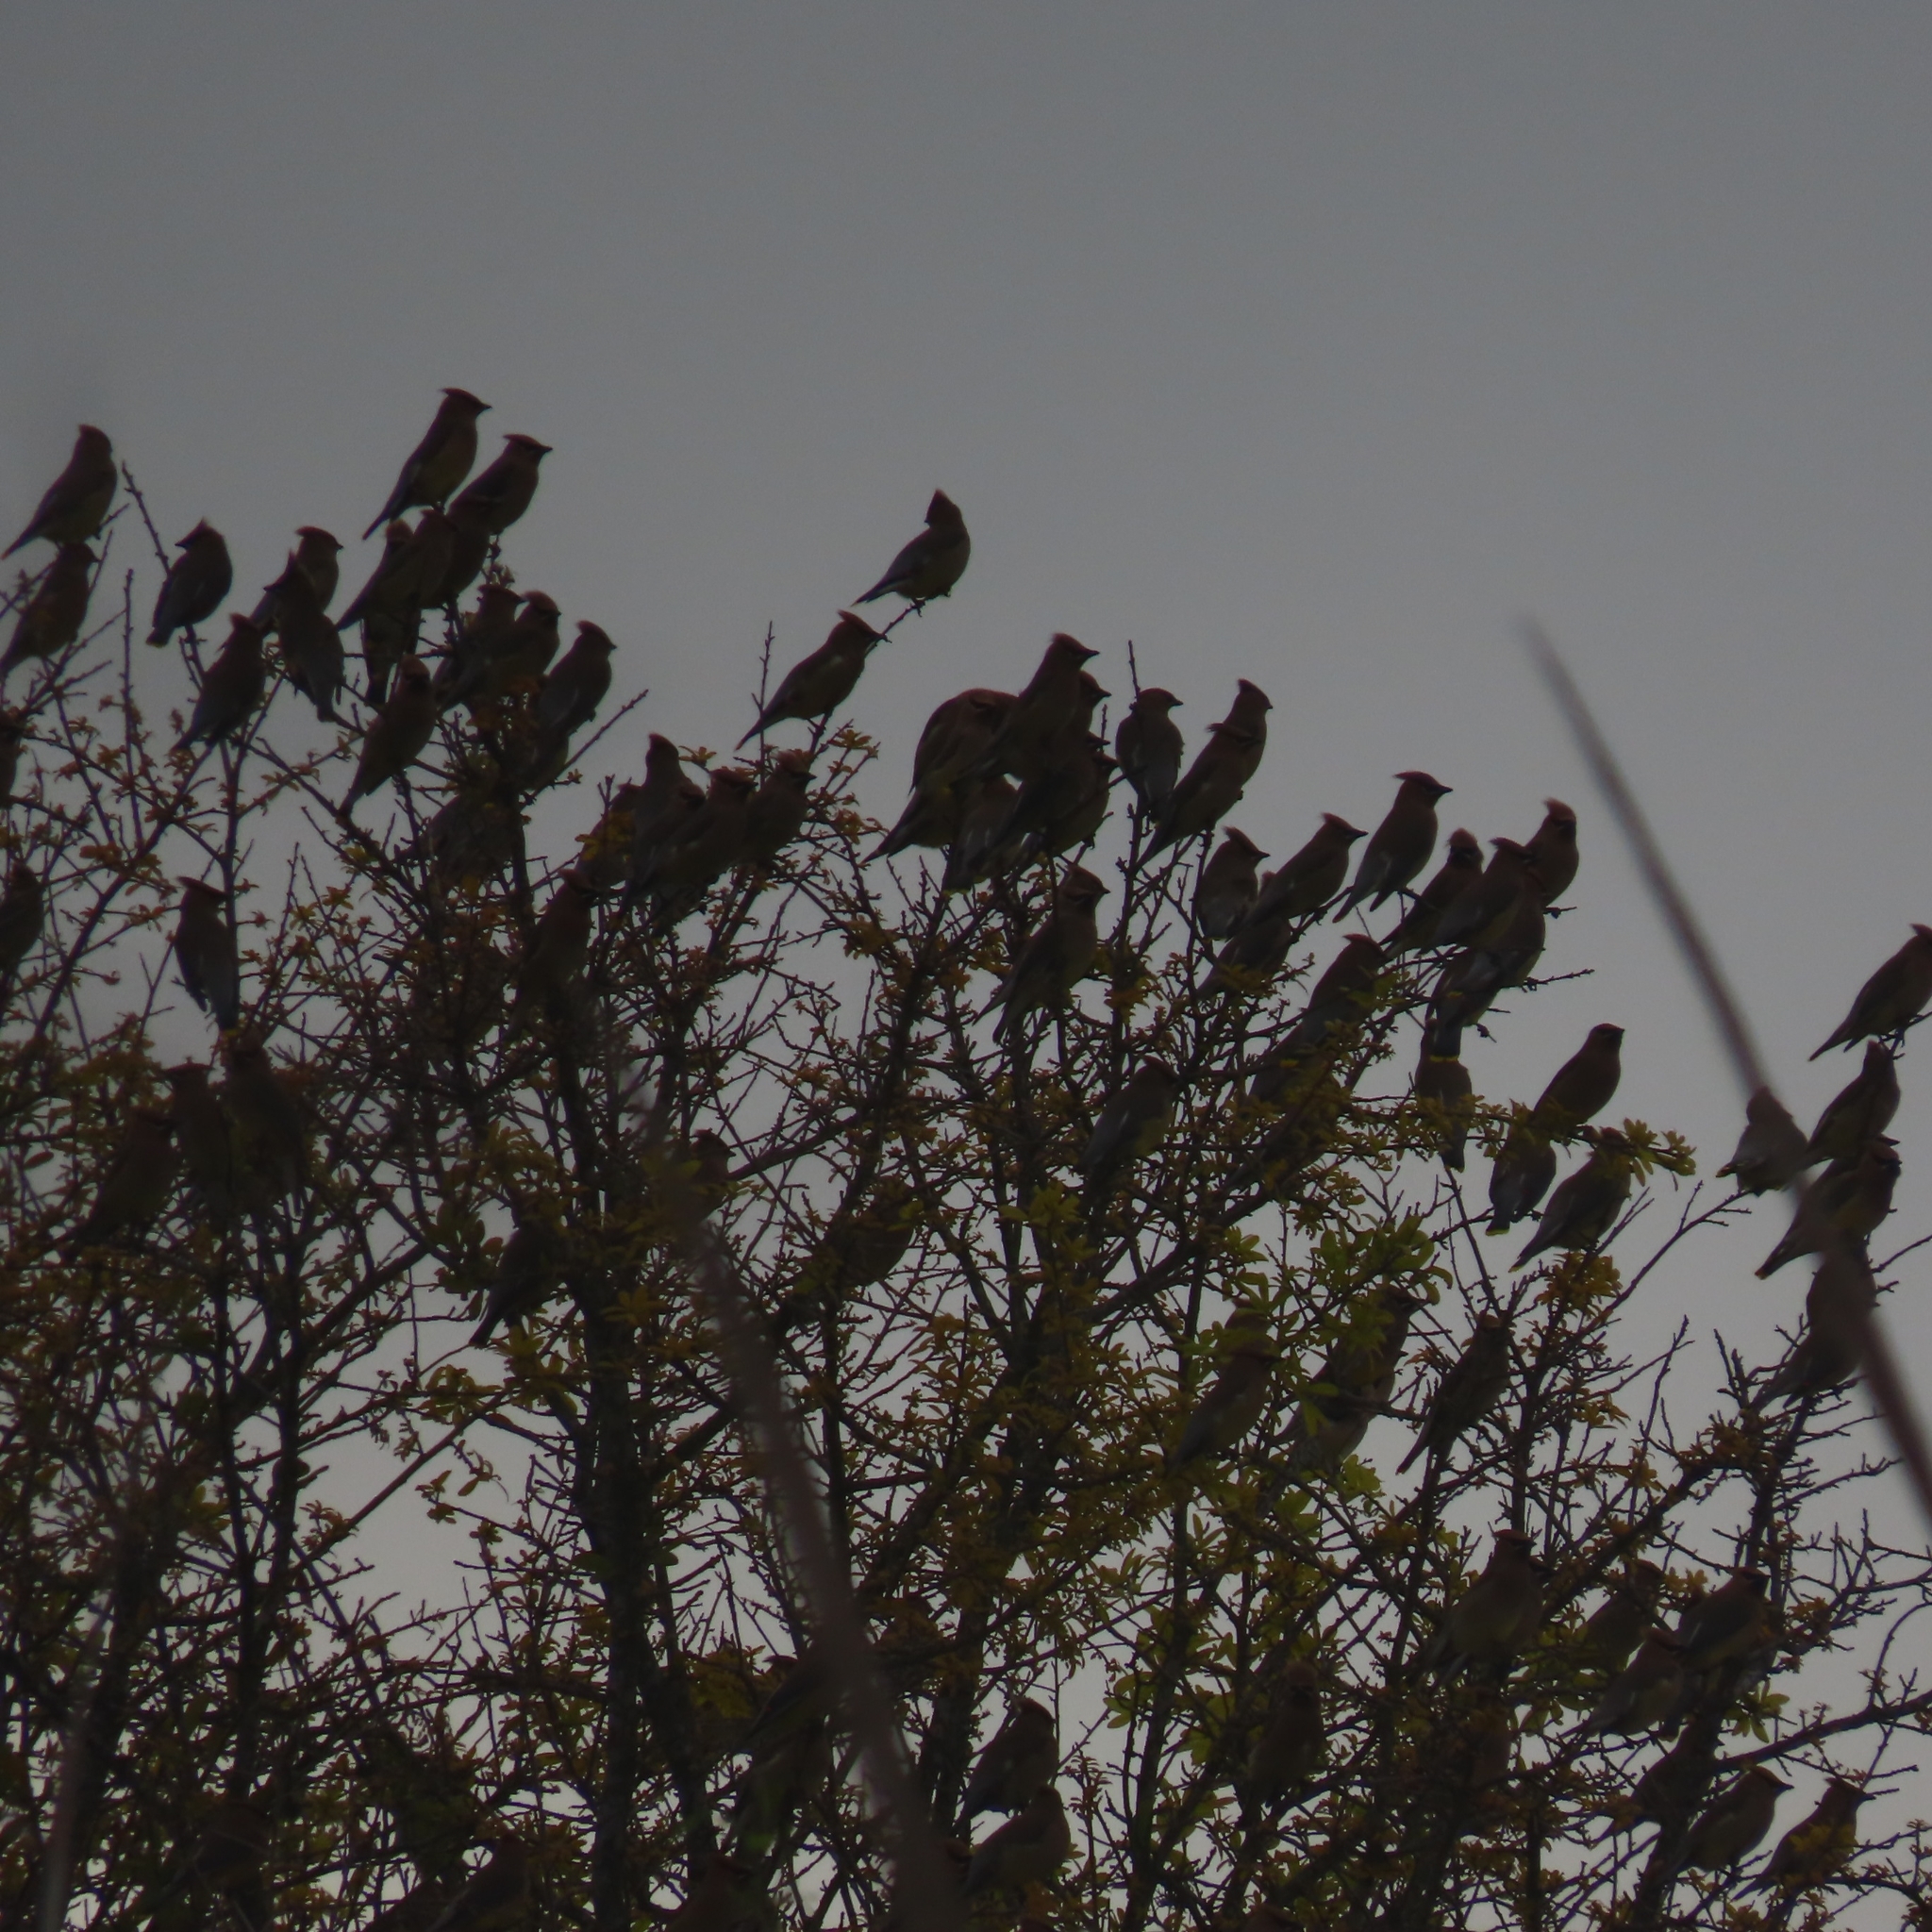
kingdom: Animalia
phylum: Chordata
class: Aves
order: Passeriformes
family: Bombycillidae
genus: Bombycilla
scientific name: Bombycilla cedrorum
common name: Cedar waxwing
